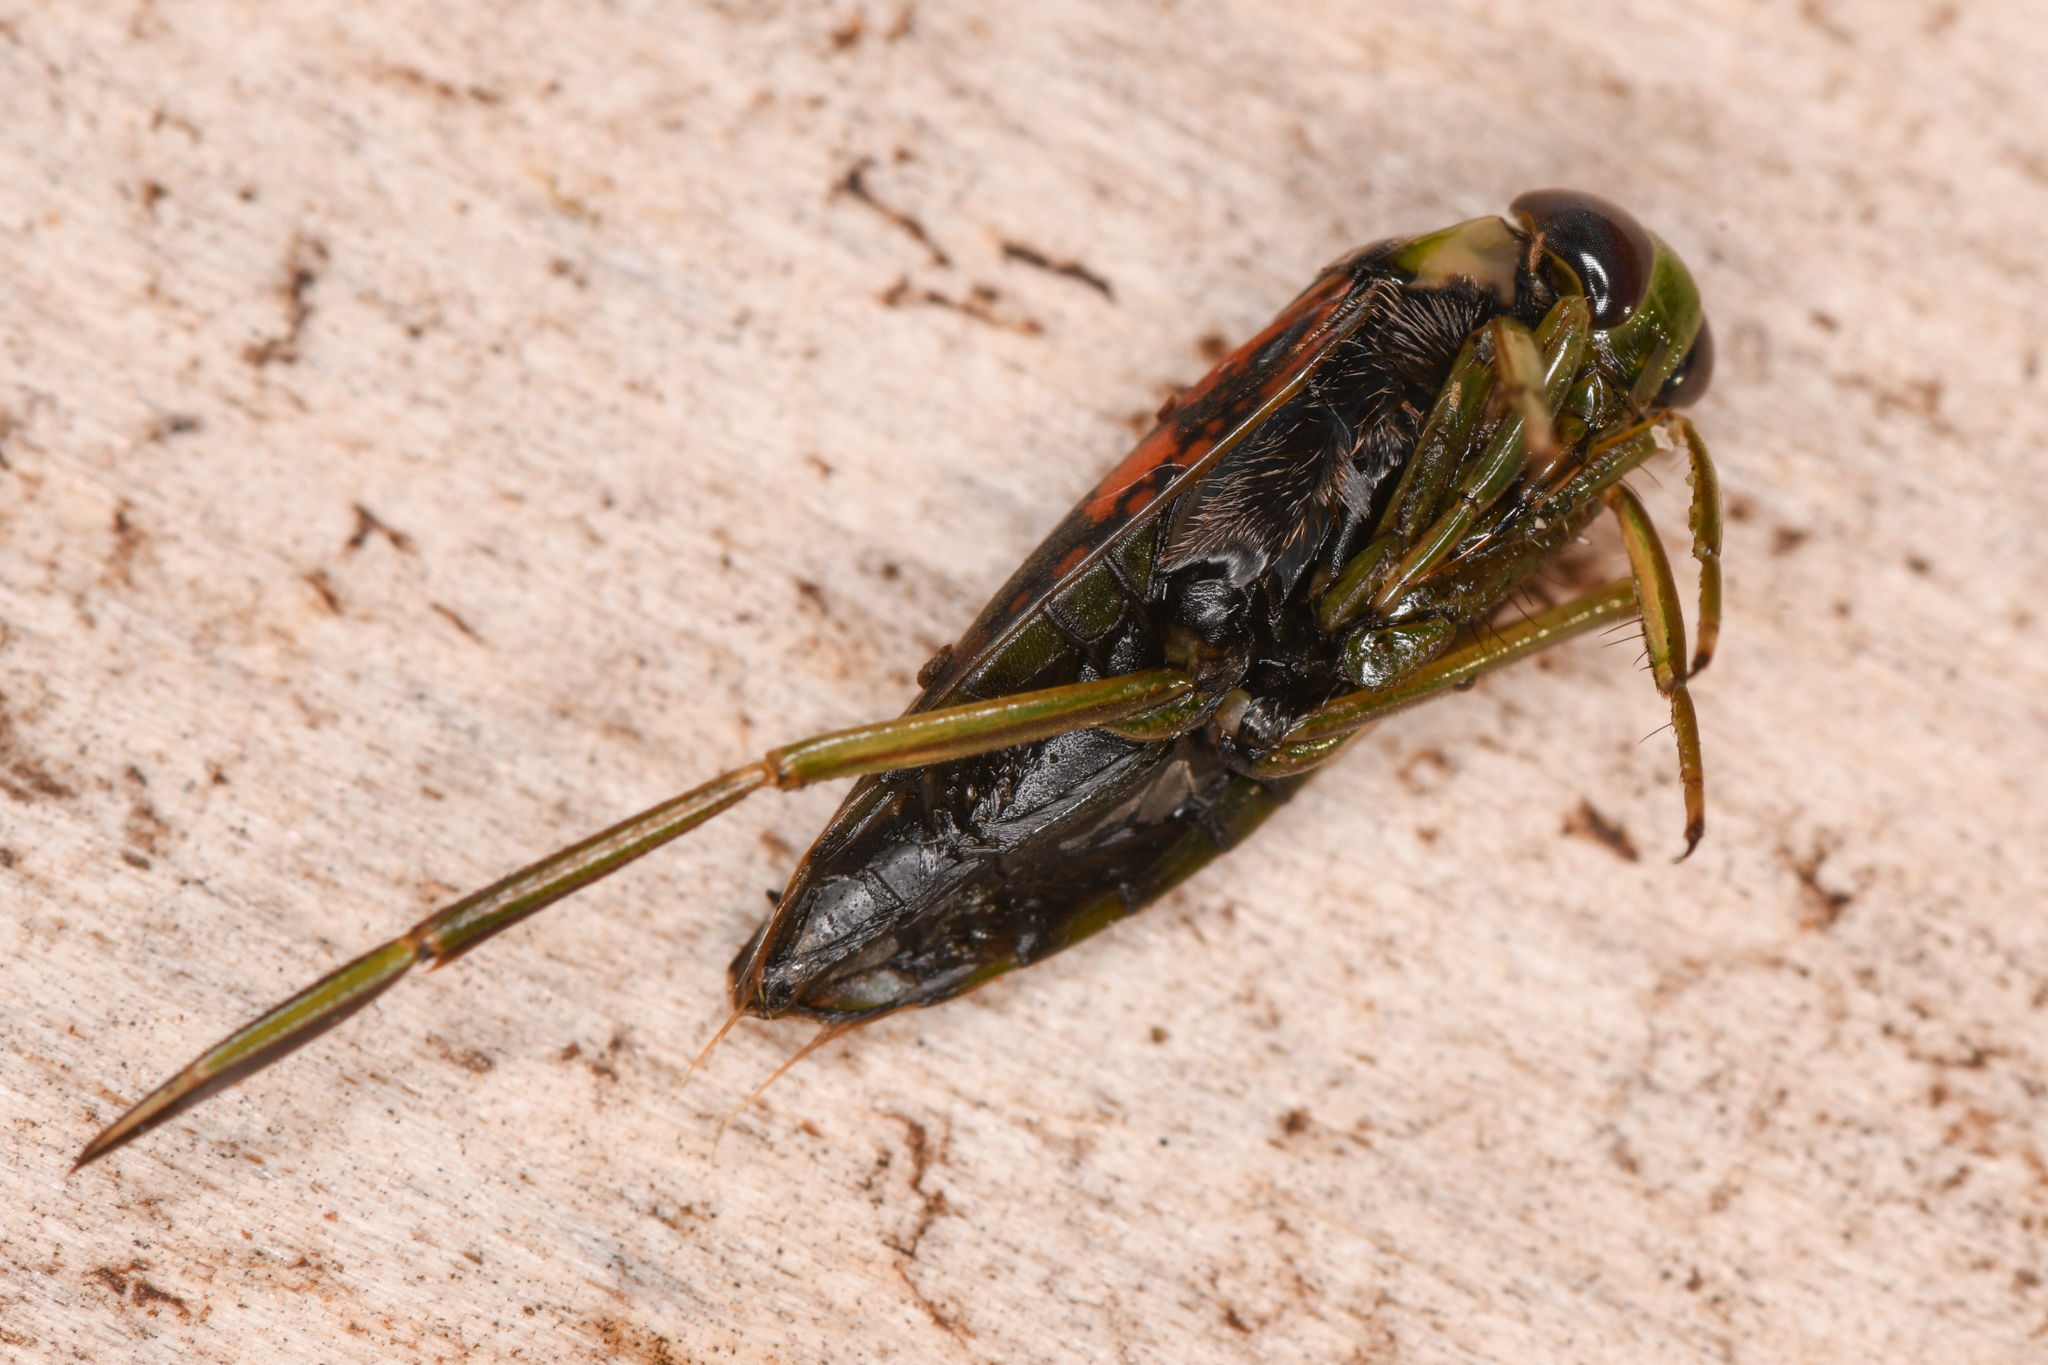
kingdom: Animalia
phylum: Arthropoda
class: Insecta
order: Hemiptera
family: Notonectidae
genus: Notonecta
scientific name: Notonecta kirbyi
